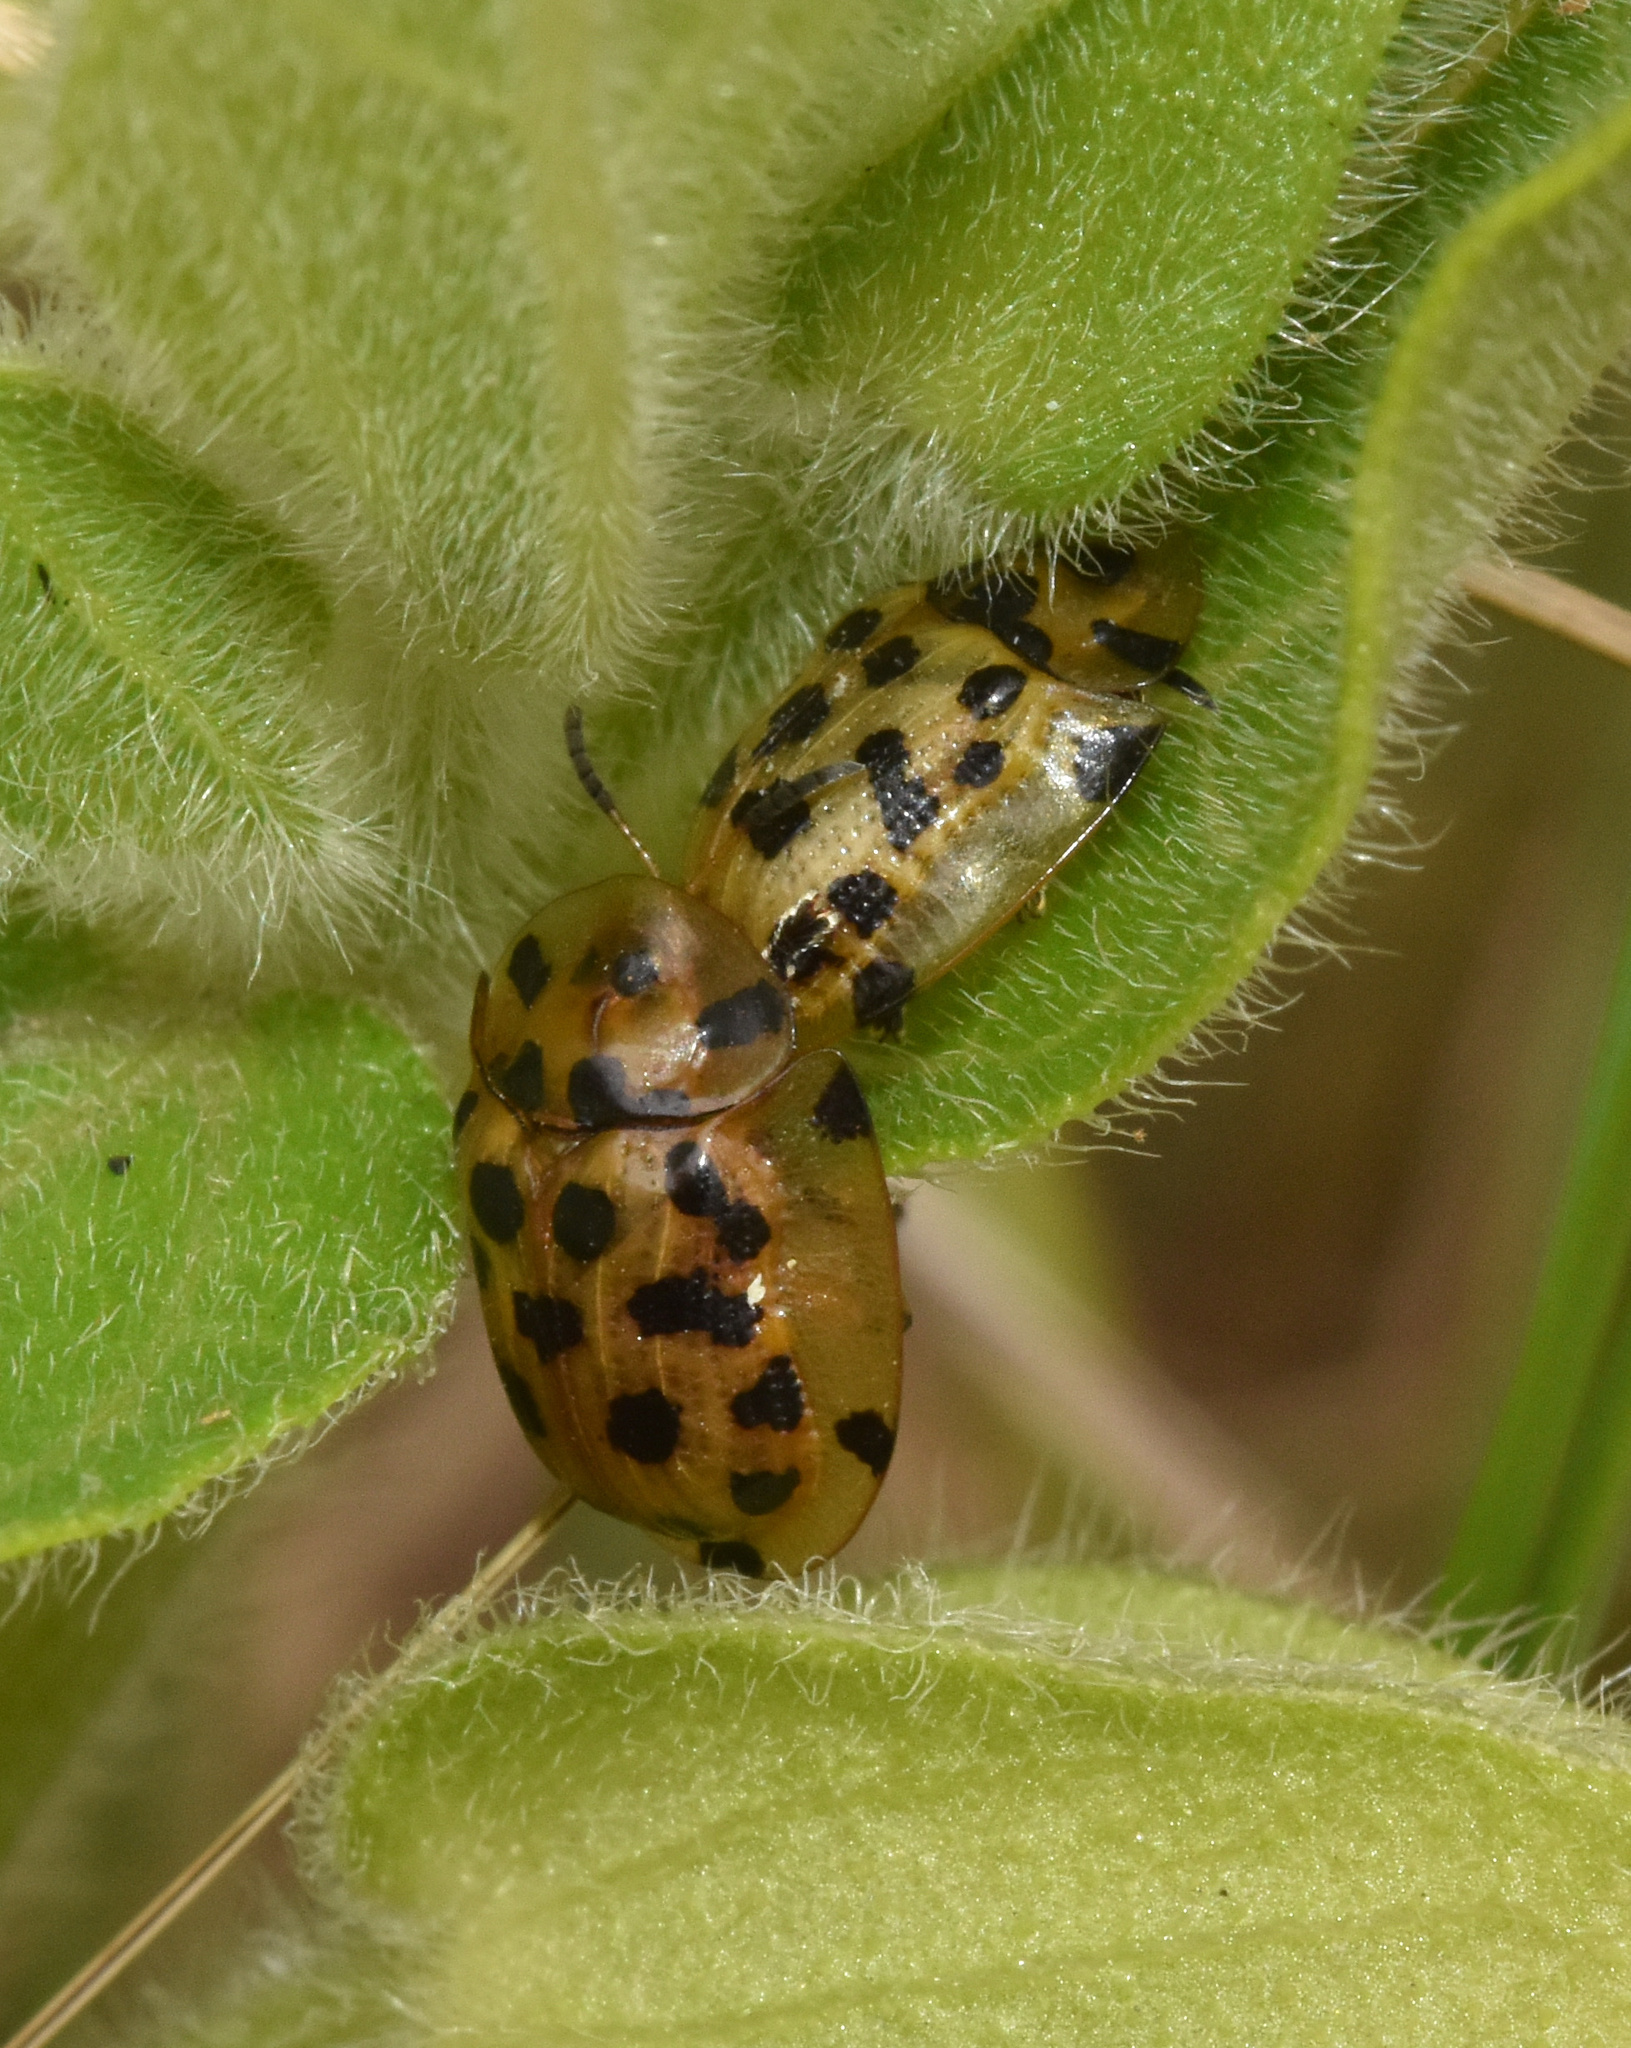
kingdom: Animalia
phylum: Arthropoda
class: Insecta
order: Coleoptera
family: Chrysomelidae
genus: Aethiopocassis
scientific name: Aethiopocassis vigintimaculata
